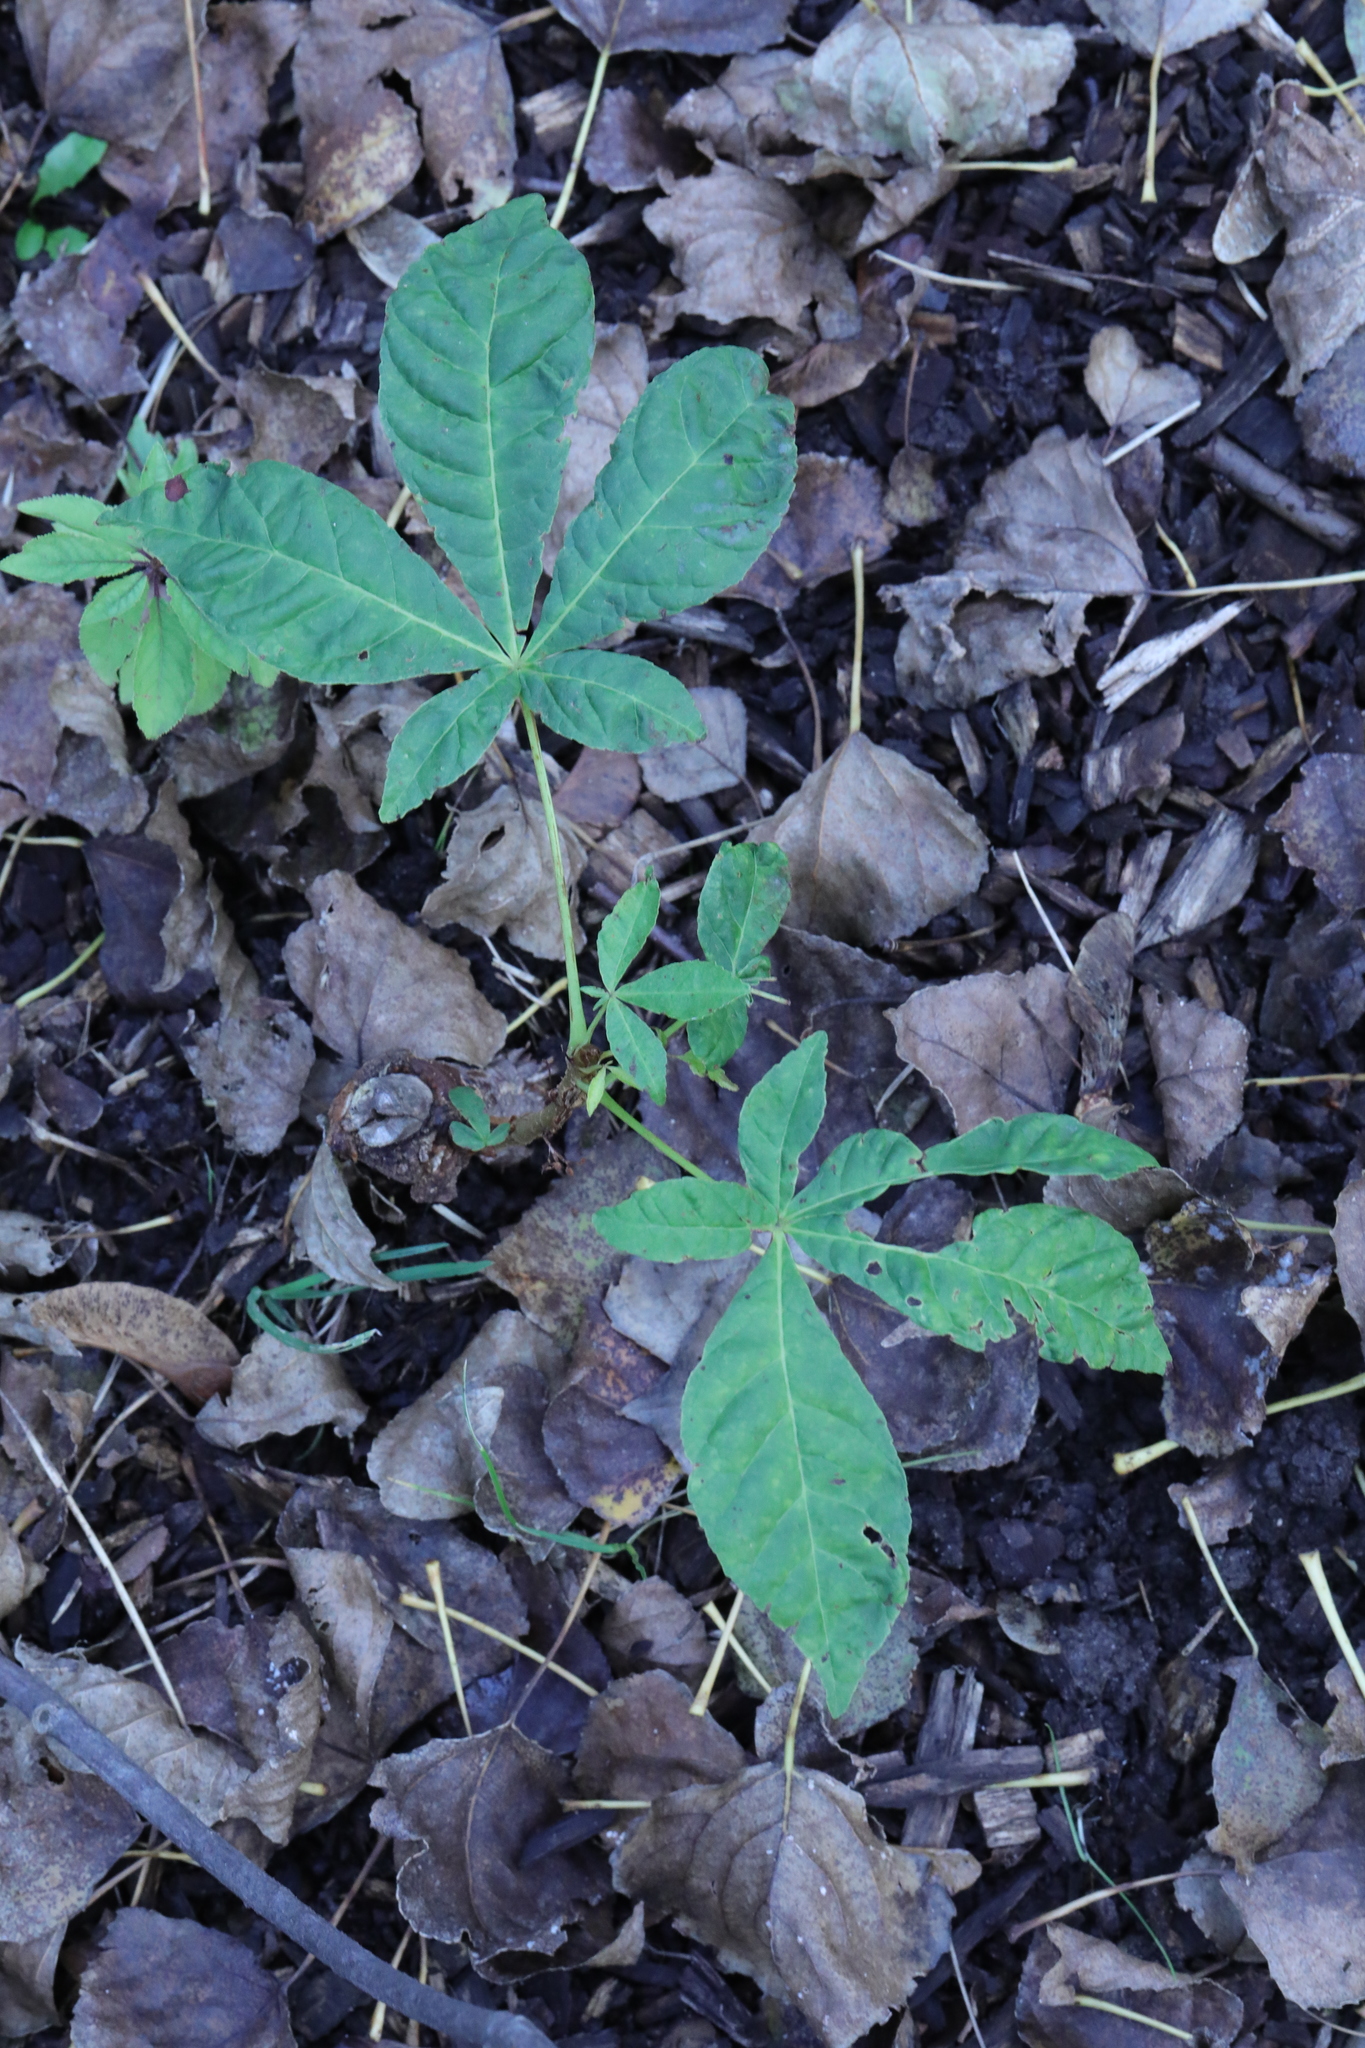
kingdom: Plantae
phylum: Tracheophyta
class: Magnoliopsida
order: Sapindales
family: Sapindaceae
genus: Aesculus
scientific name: Aesculus hippocastanum
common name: Horse-chestnut
